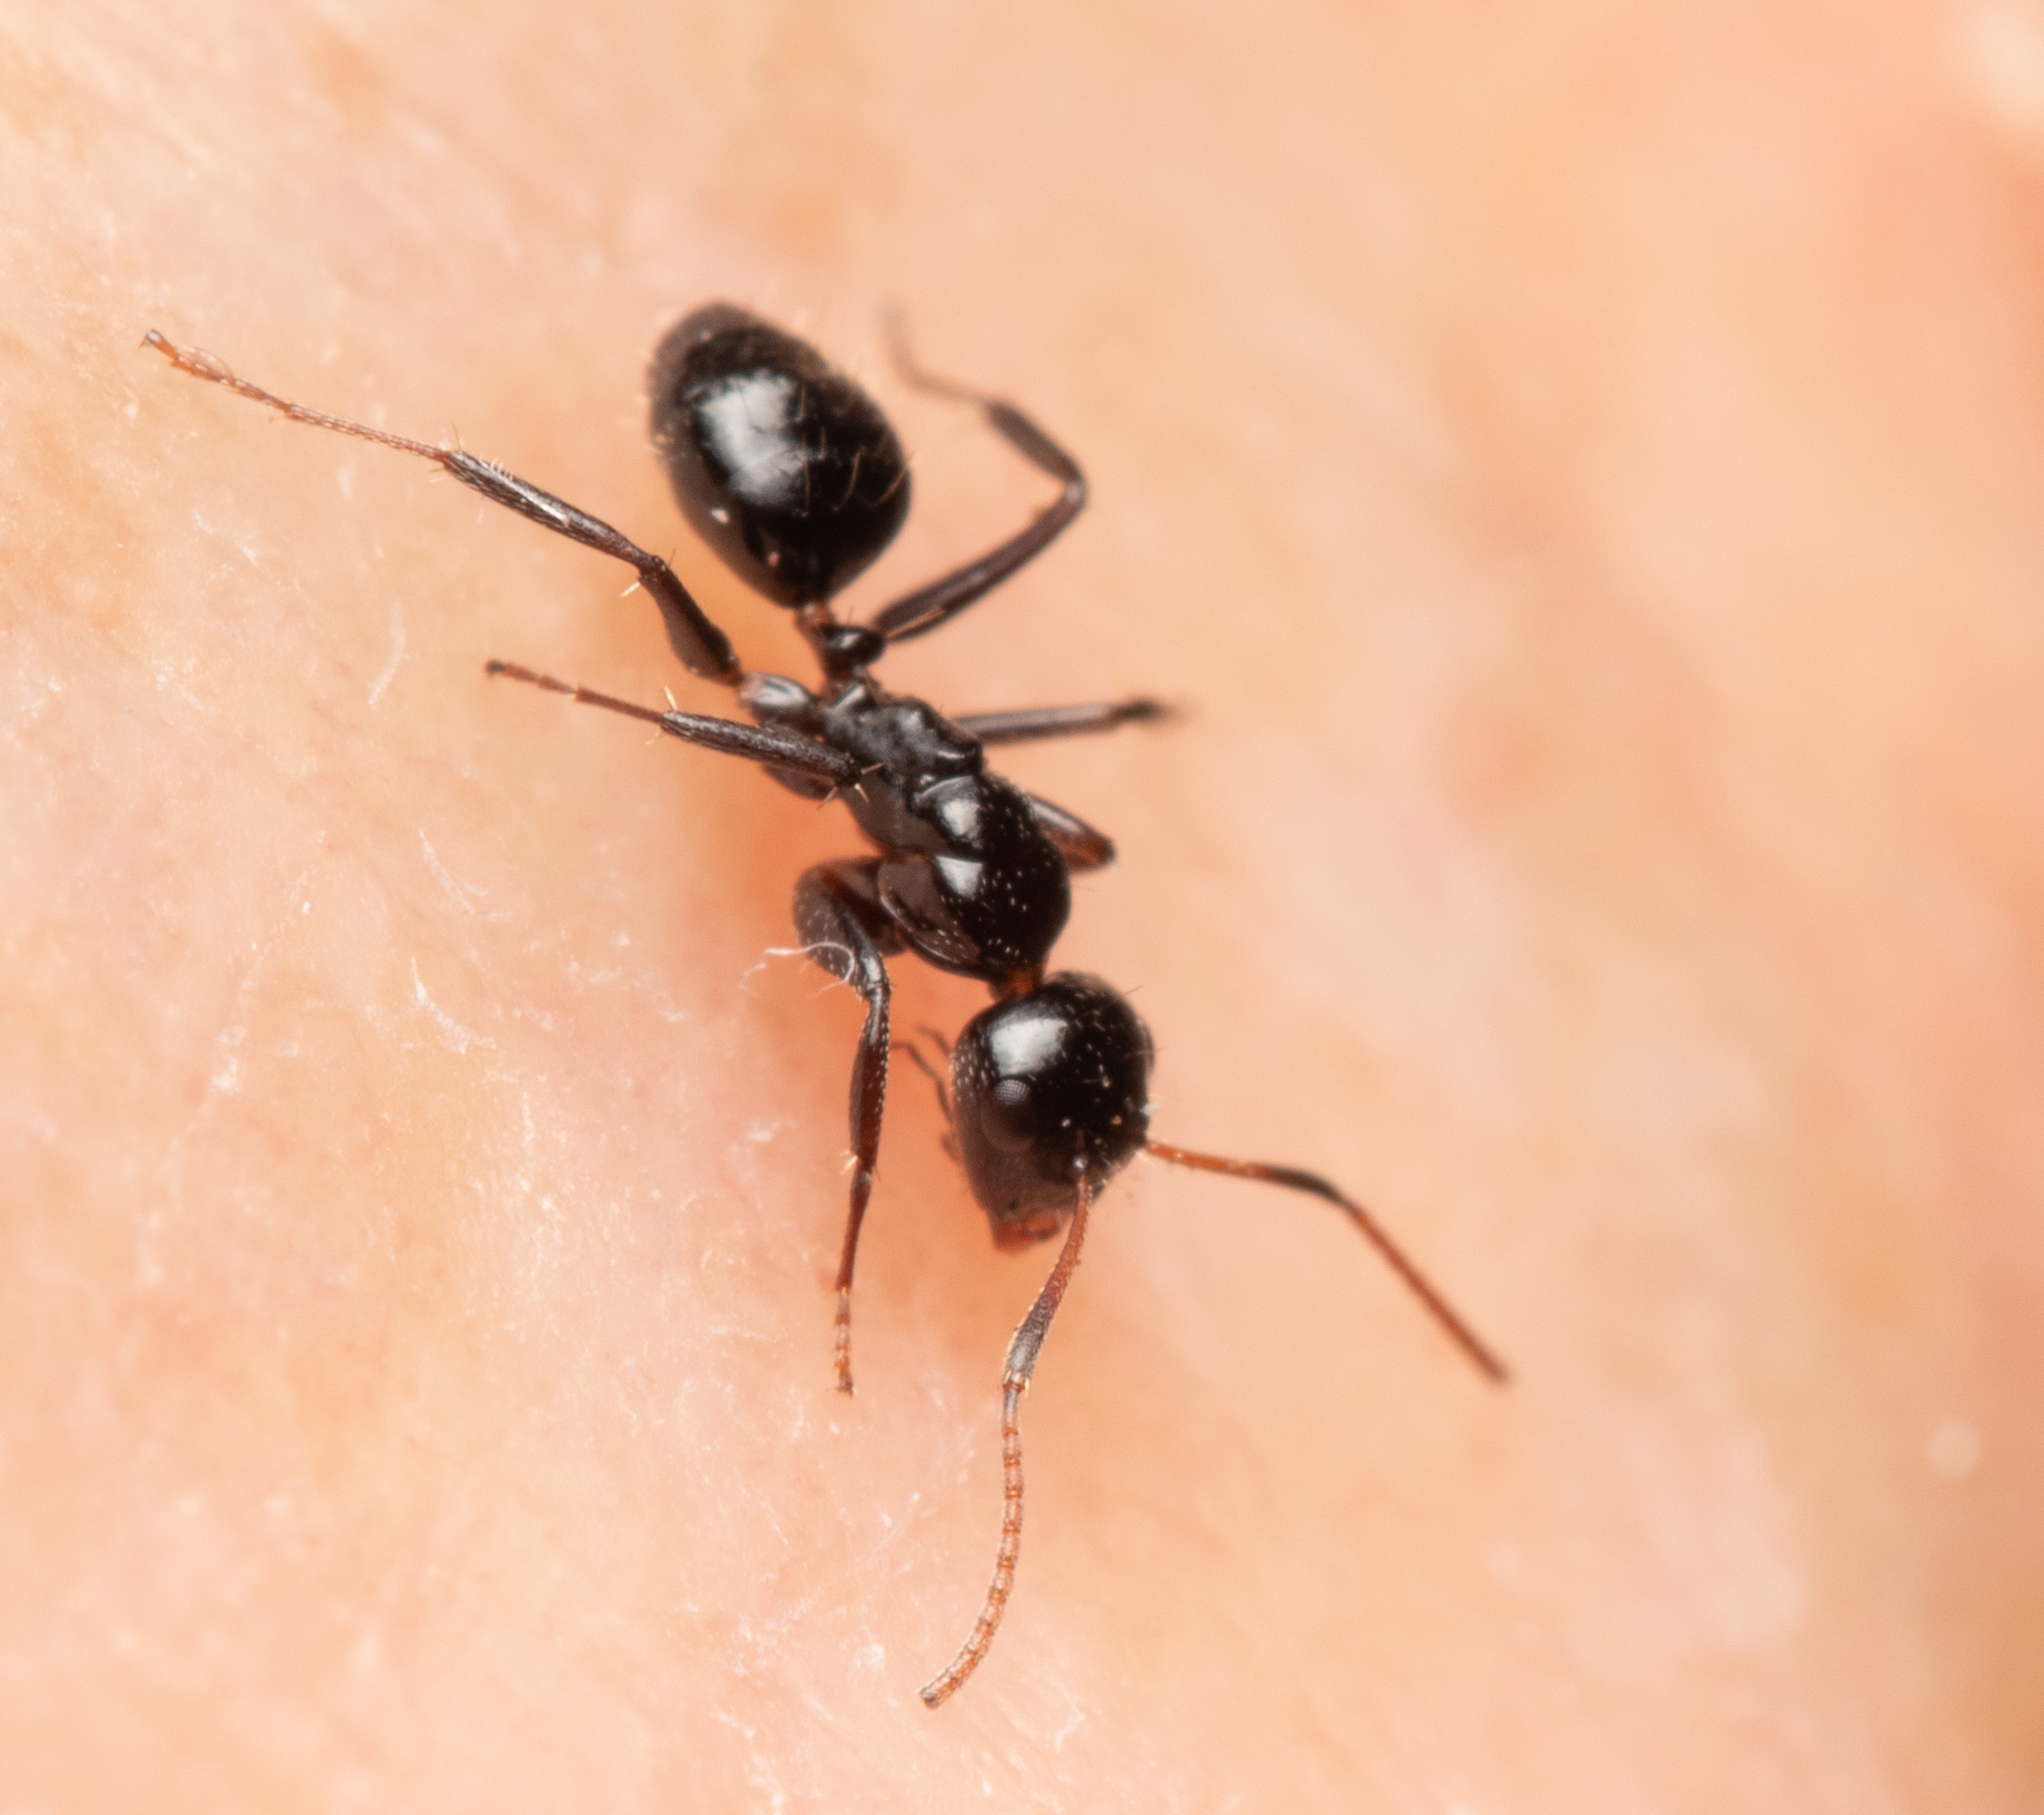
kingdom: Animalia
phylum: Arthropoda
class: Insecta
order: Hymenoptera
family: Formicidae
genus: Camponotus
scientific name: Camponotus mackayensis
